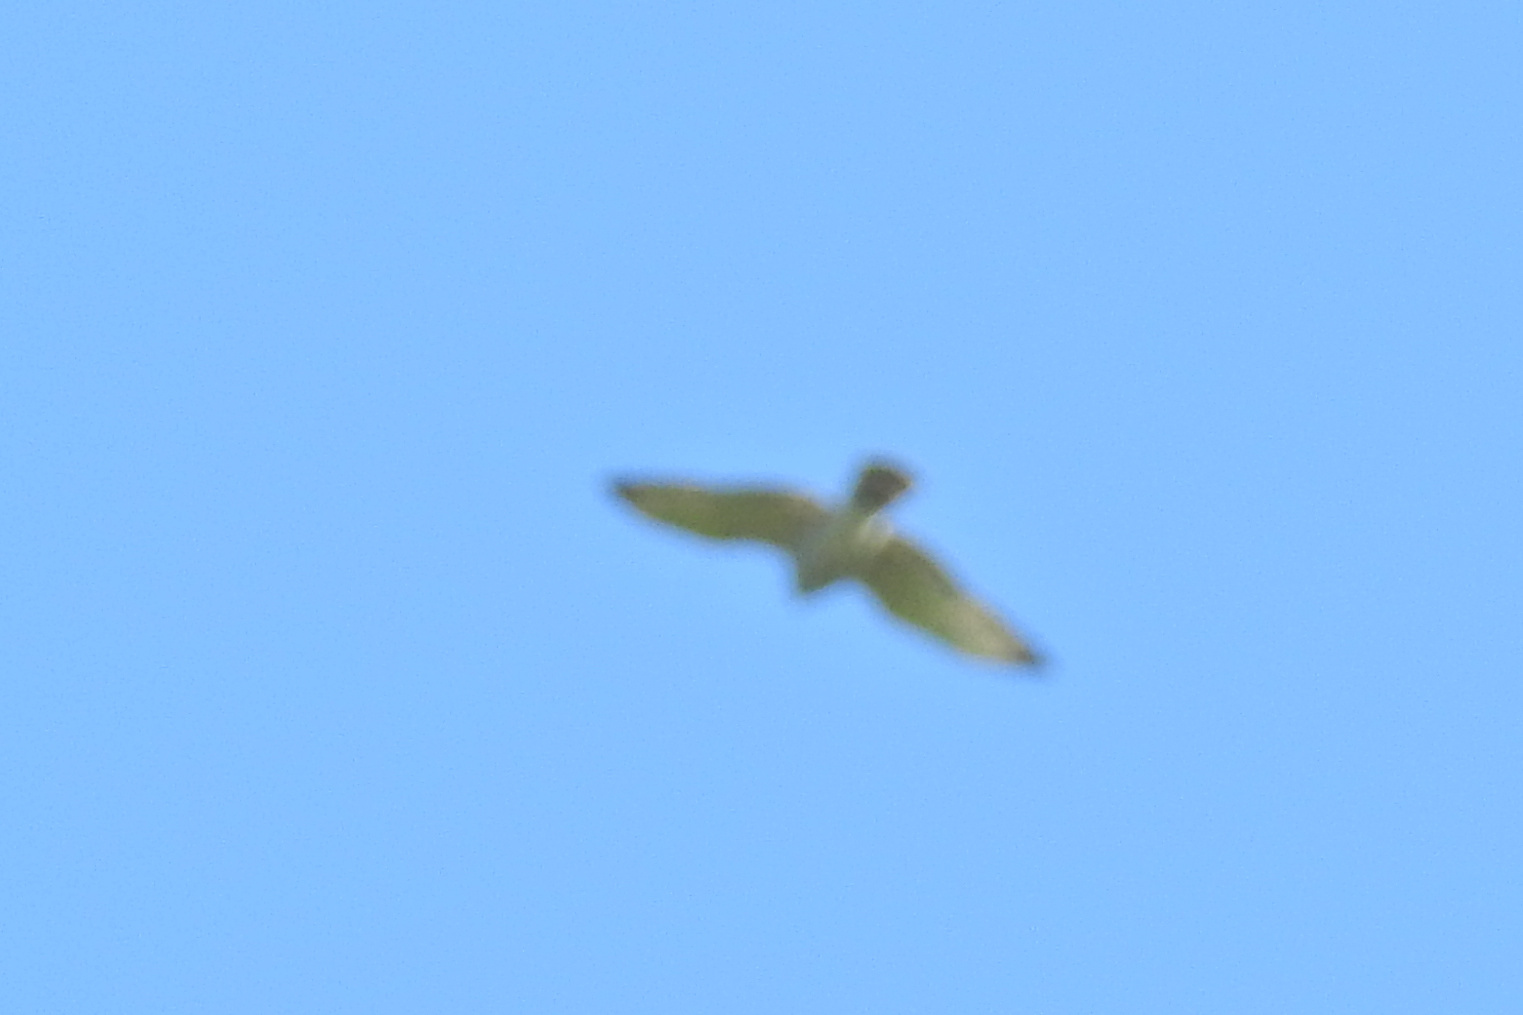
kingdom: Animalia
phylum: Chordata
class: Aves
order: Accipitriformes
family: Accipitridae
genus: Buteo
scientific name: Buteo jamaicensis
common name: Red-tailed hawk
